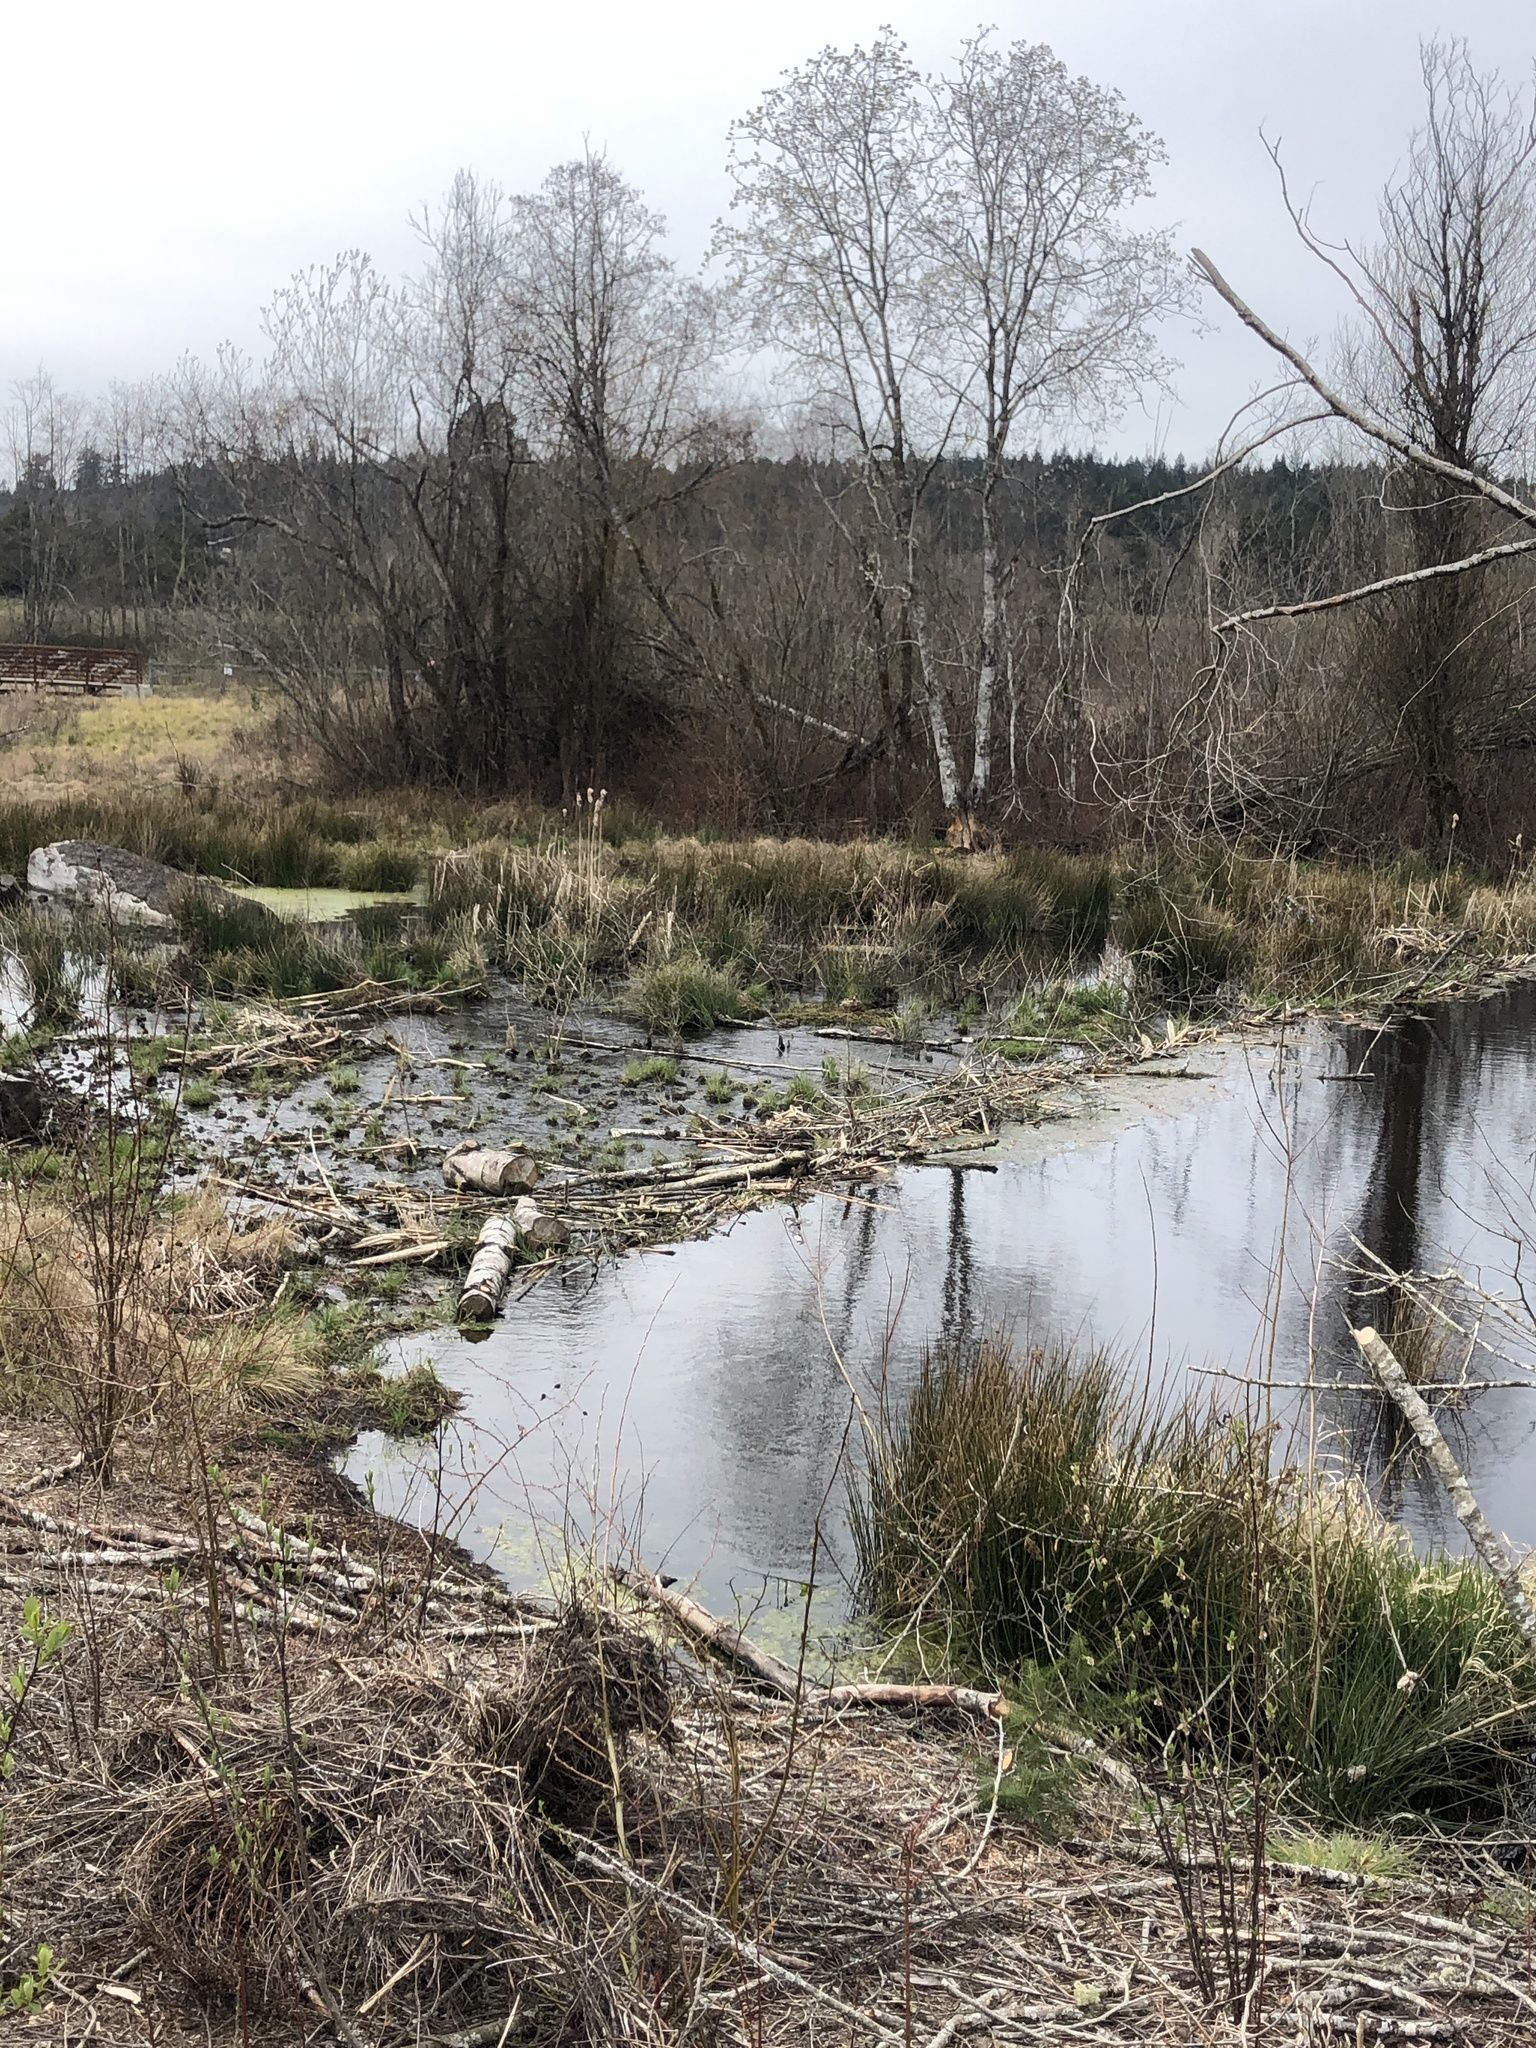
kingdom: Animalia
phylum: Chordata
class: Mammalia
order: Rodentia
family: Castoridae
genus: Castor
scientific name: Castor canadensis
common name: American beaver
